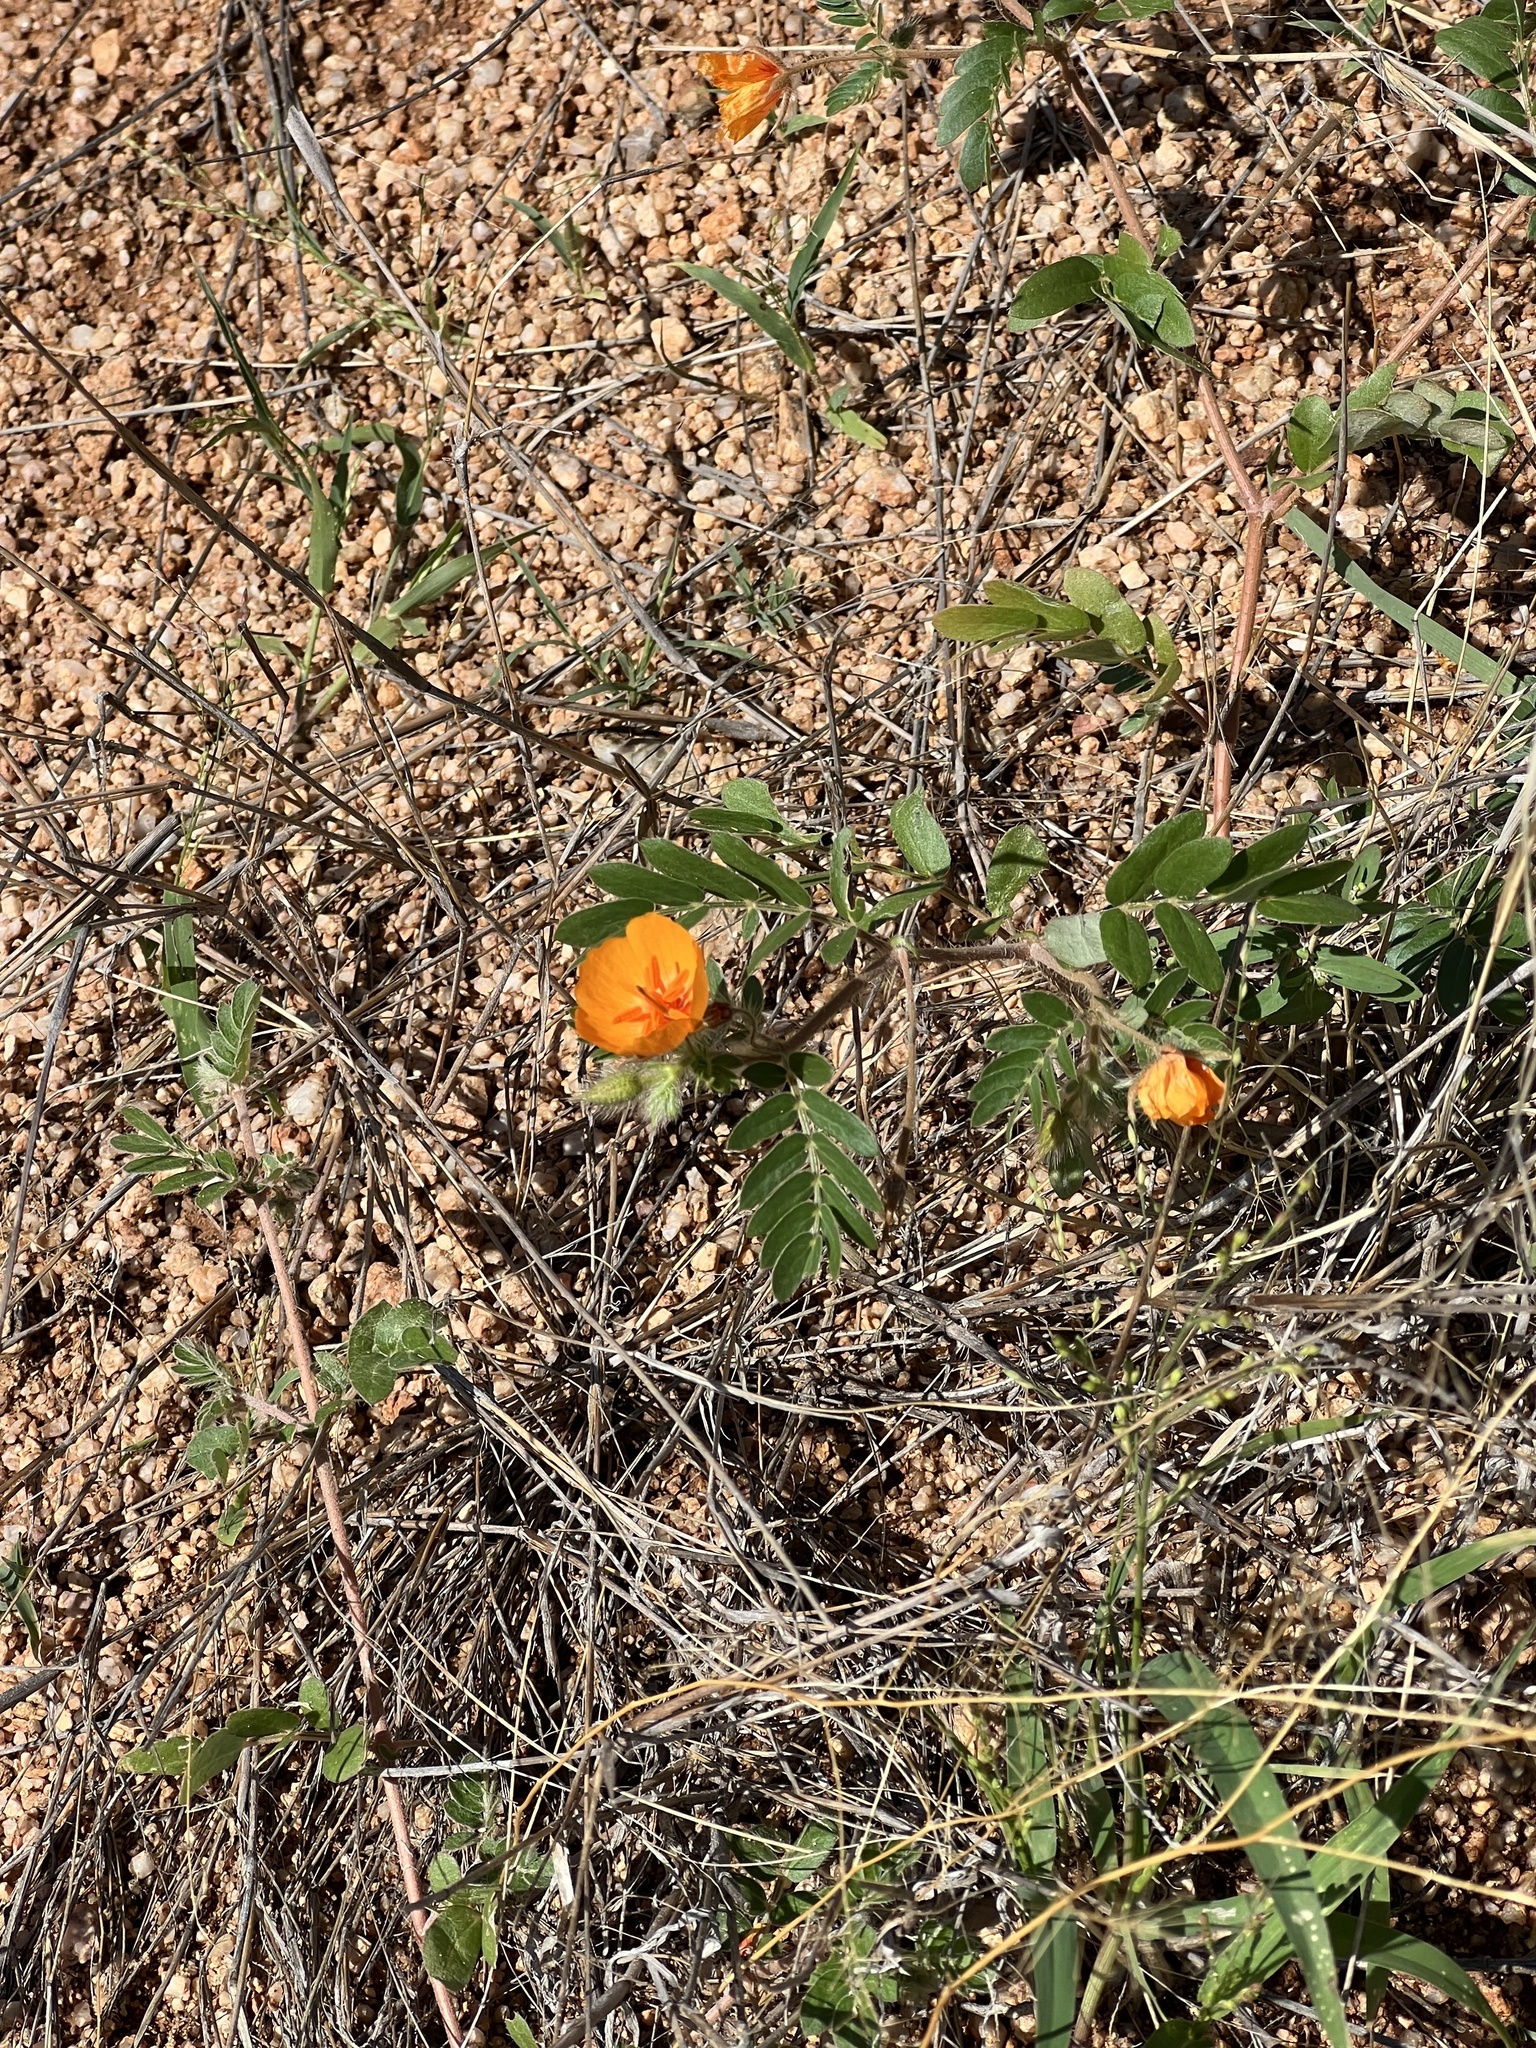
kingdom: Plantae
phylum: Tracheophyta
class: Magnoliopsida
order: Zygophyllales
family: Zygophyllaceae
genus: Kallstroemia
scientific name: Kallstroemia grandiflora
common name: Arizona-poppy
